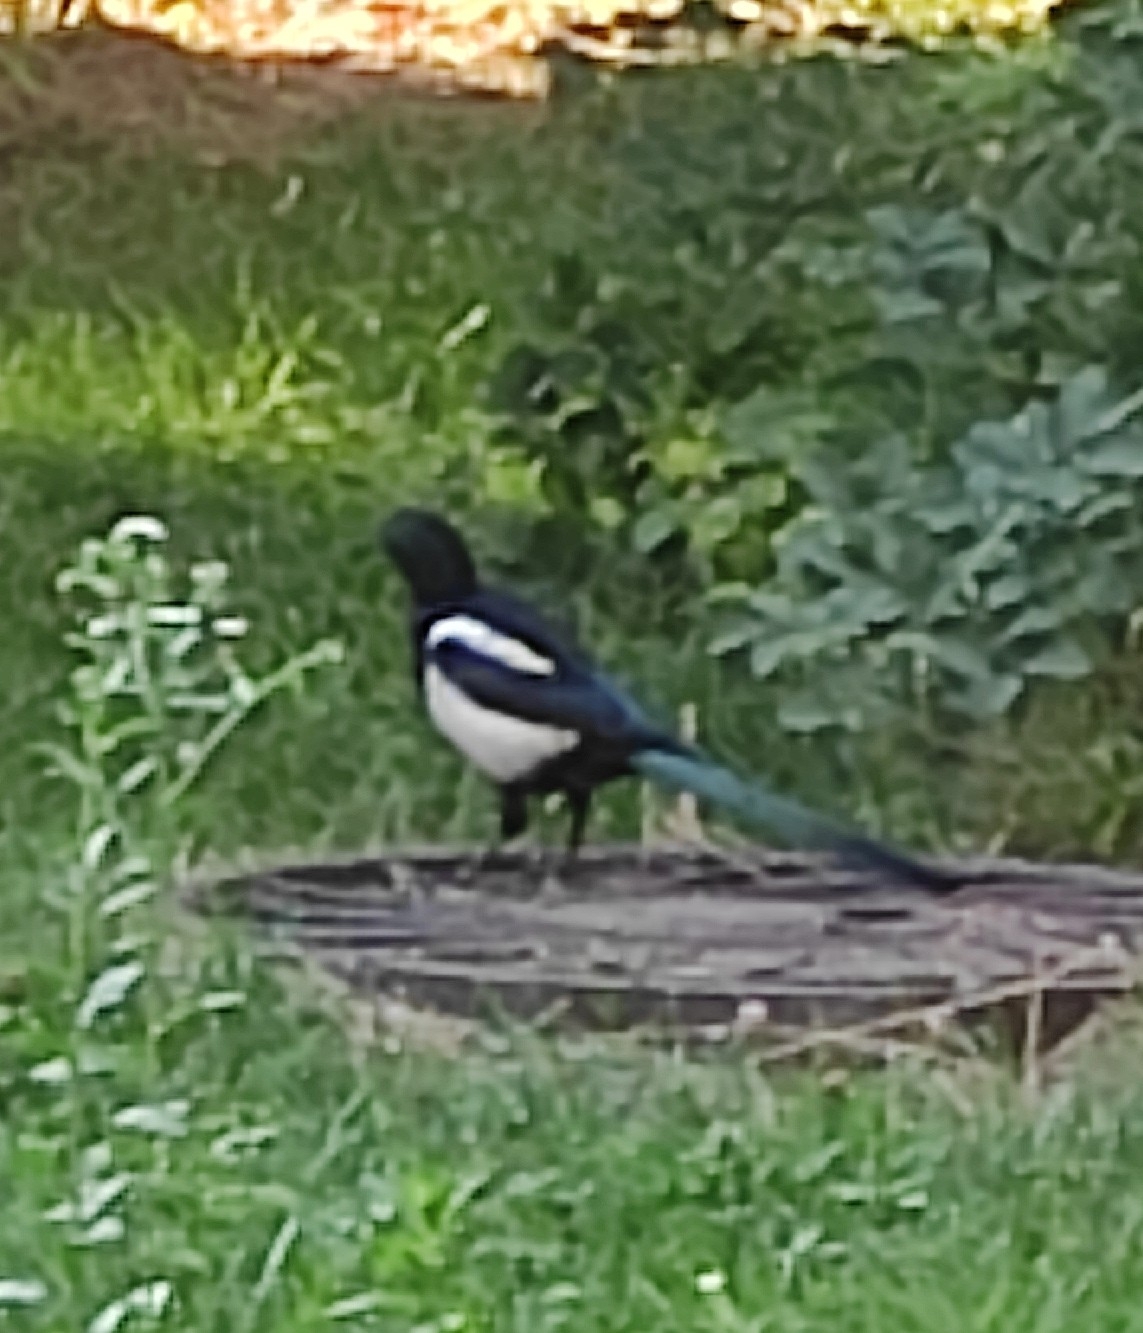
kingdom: Animalia
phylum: Chordata
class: Aves
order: Passeriformes
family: Corvidae
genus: Pica
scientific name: Pica pica
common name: Eurasian magpie
